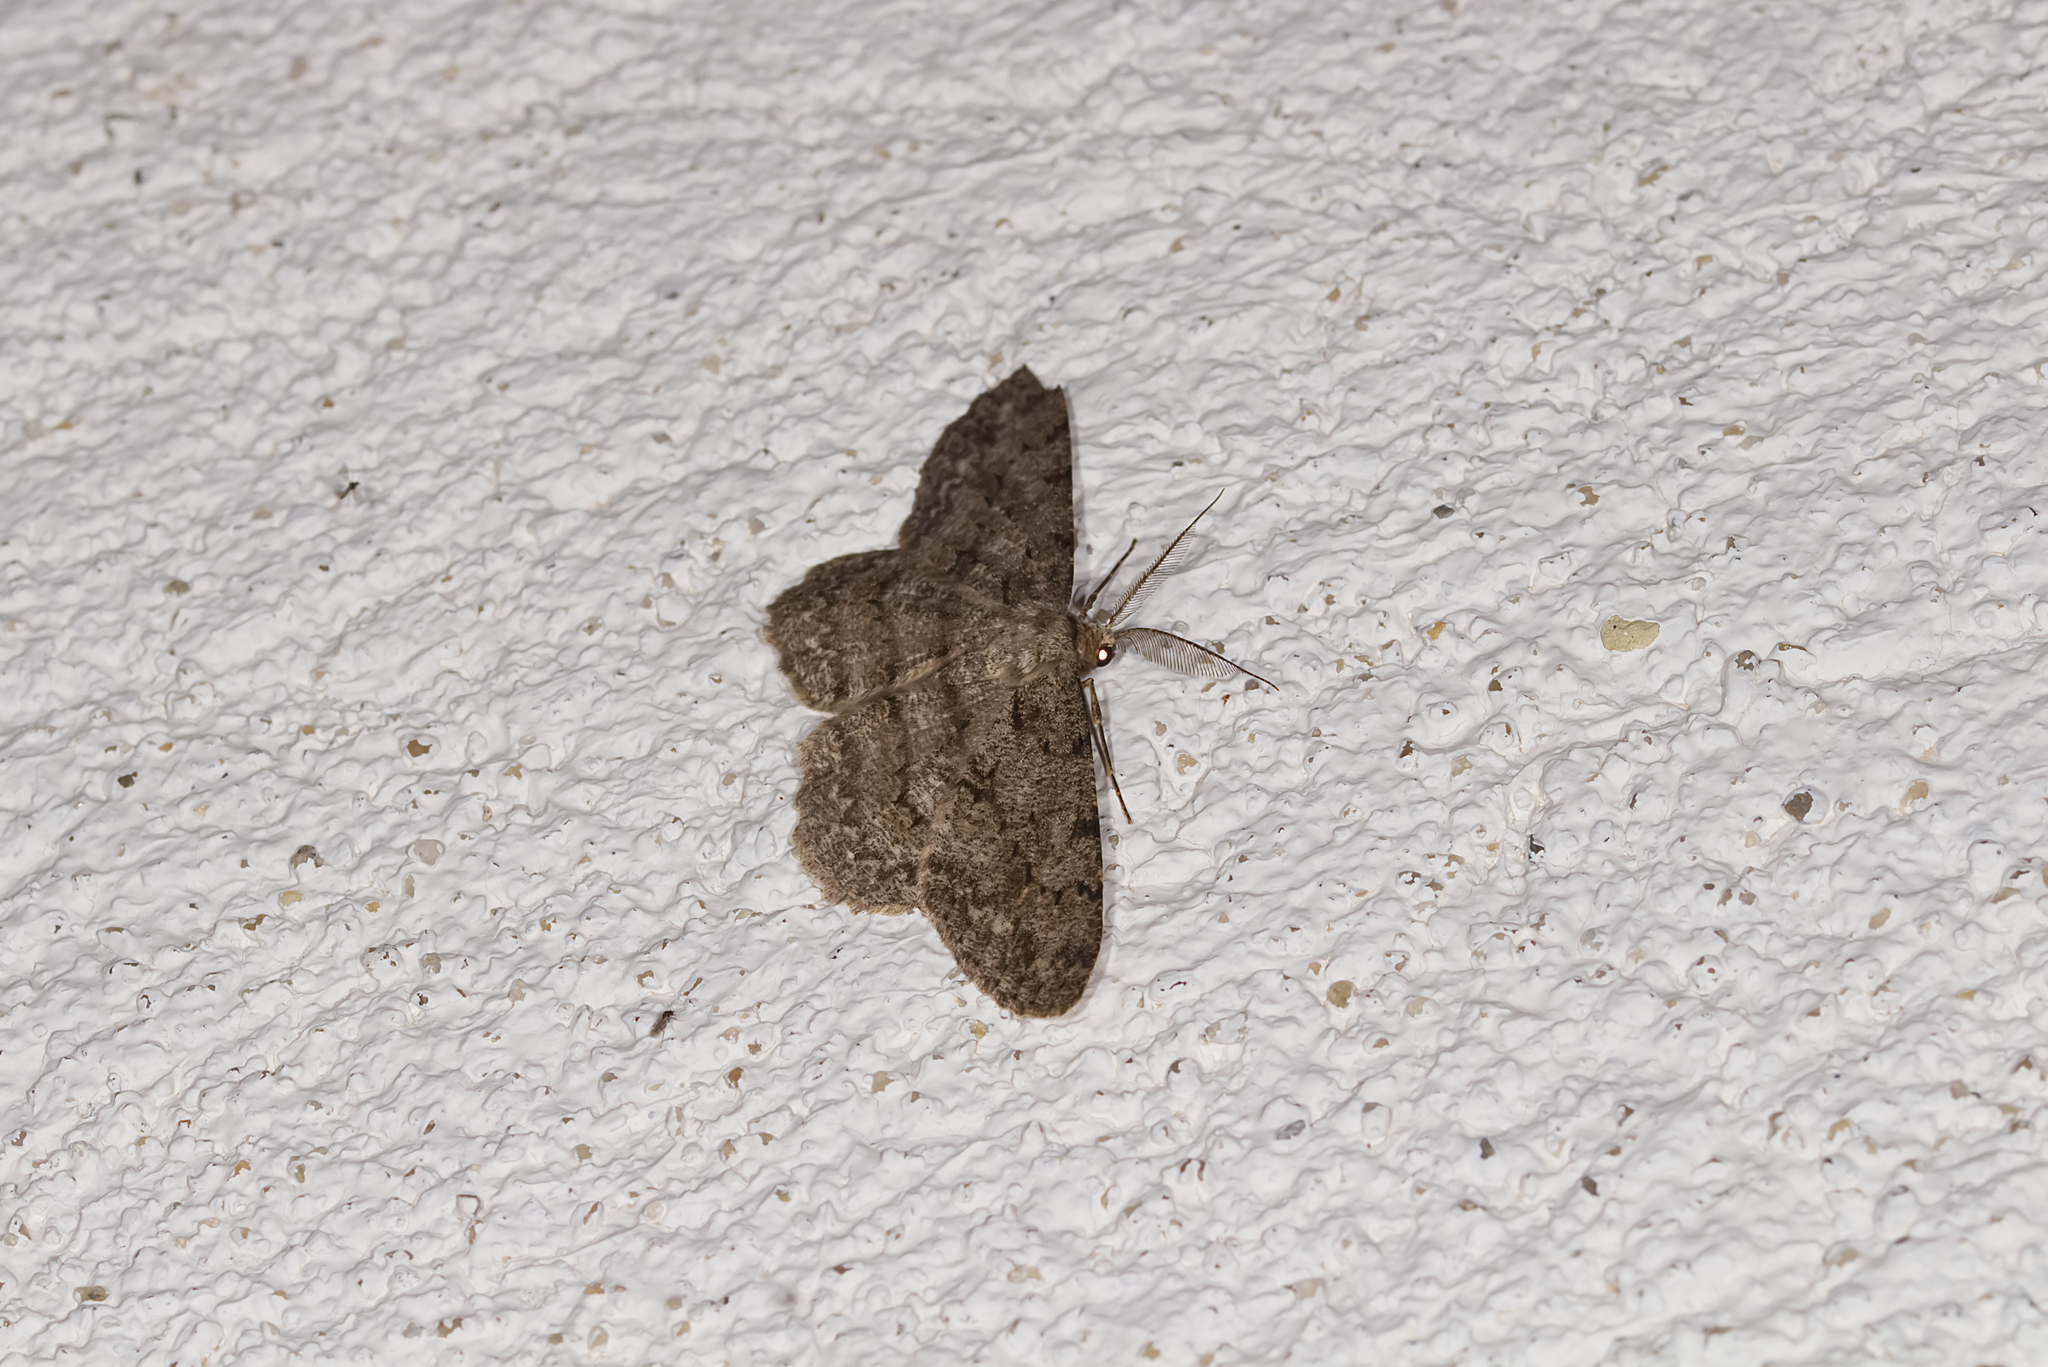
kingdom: Animalia
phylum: Arthropoda
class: Insecta
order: Lepidoptera
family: Geometridae
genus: Hypomecis
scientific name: Hypomecis punctinalis
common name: Pale oak beauty
